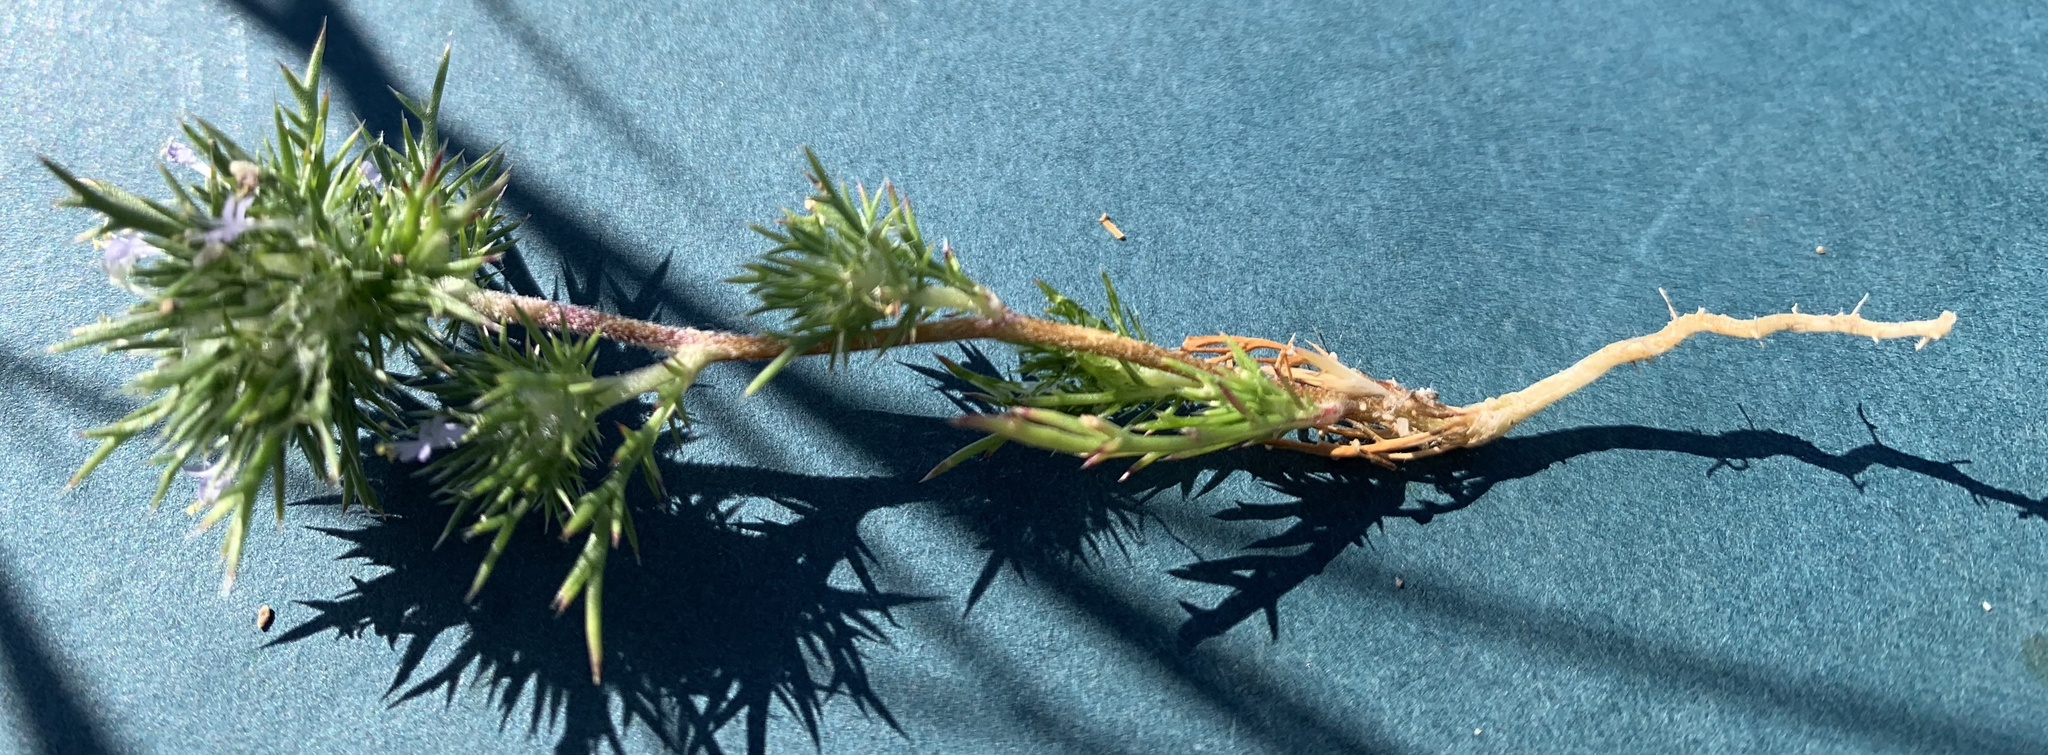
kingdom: Plantae
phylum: Tracheophyta
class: Magnoliopsida
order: Ericales
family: Polemoniaceae
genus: Navarretia
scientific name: Navarretia intertexta
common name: Needle-leaved navarretia
